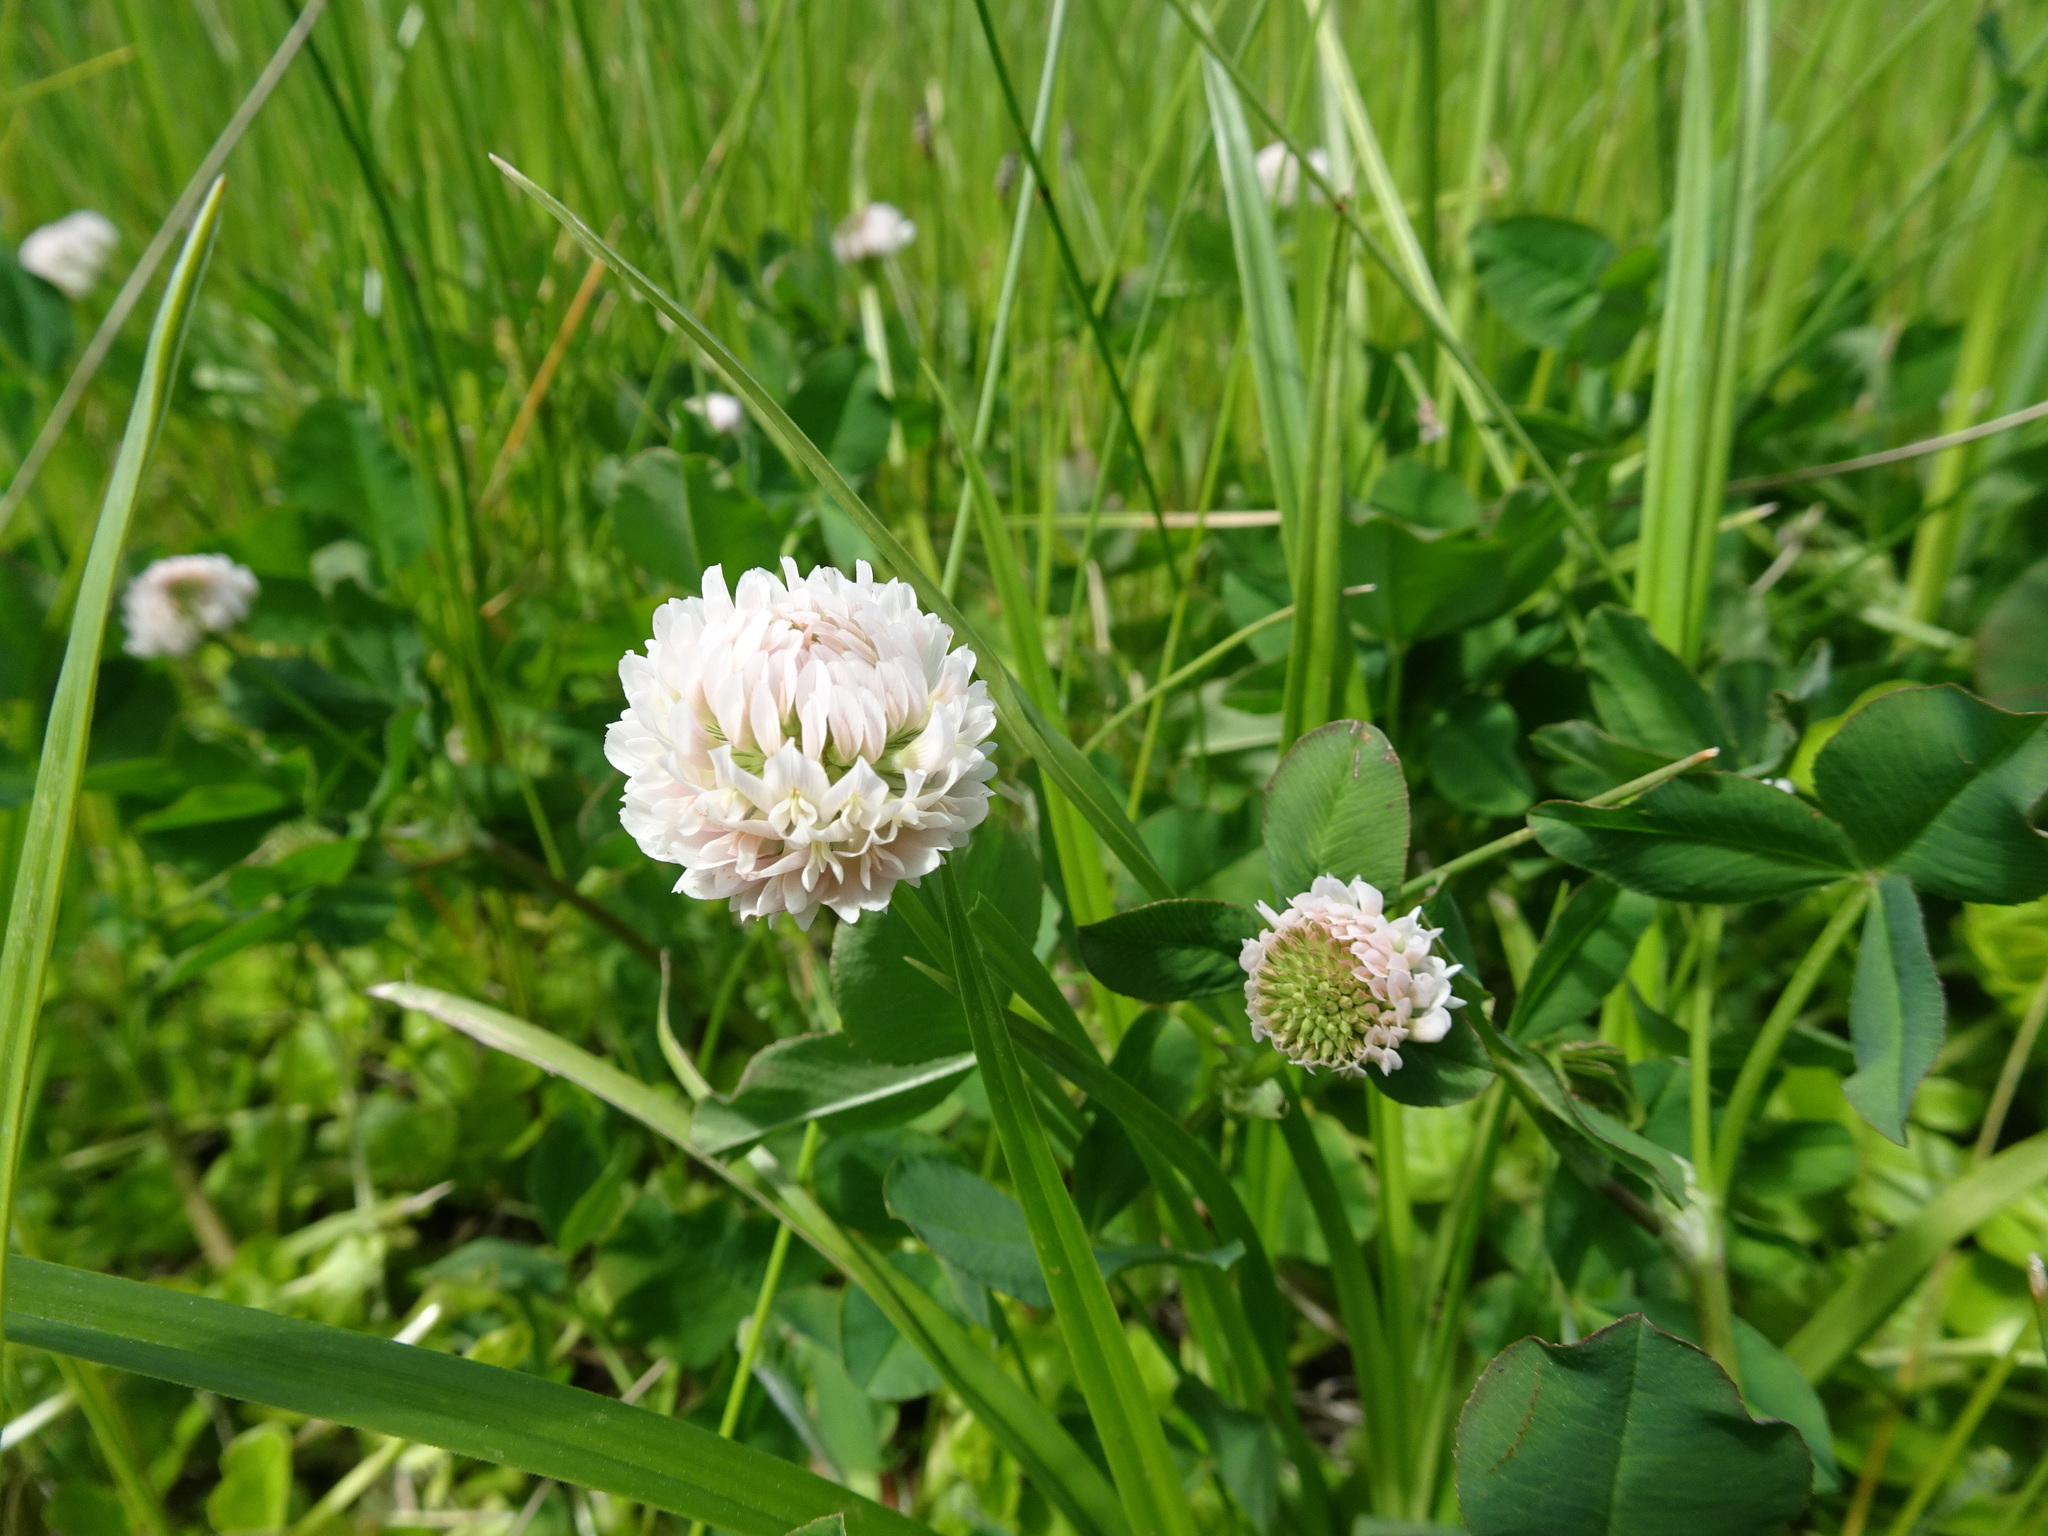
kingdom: Plantae
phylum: Tracheophyta
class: Magnoliopsida
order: Fabales
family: Fabaceae
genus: Trifolium
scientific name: Trifolium hybridum
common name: Alsike clover
